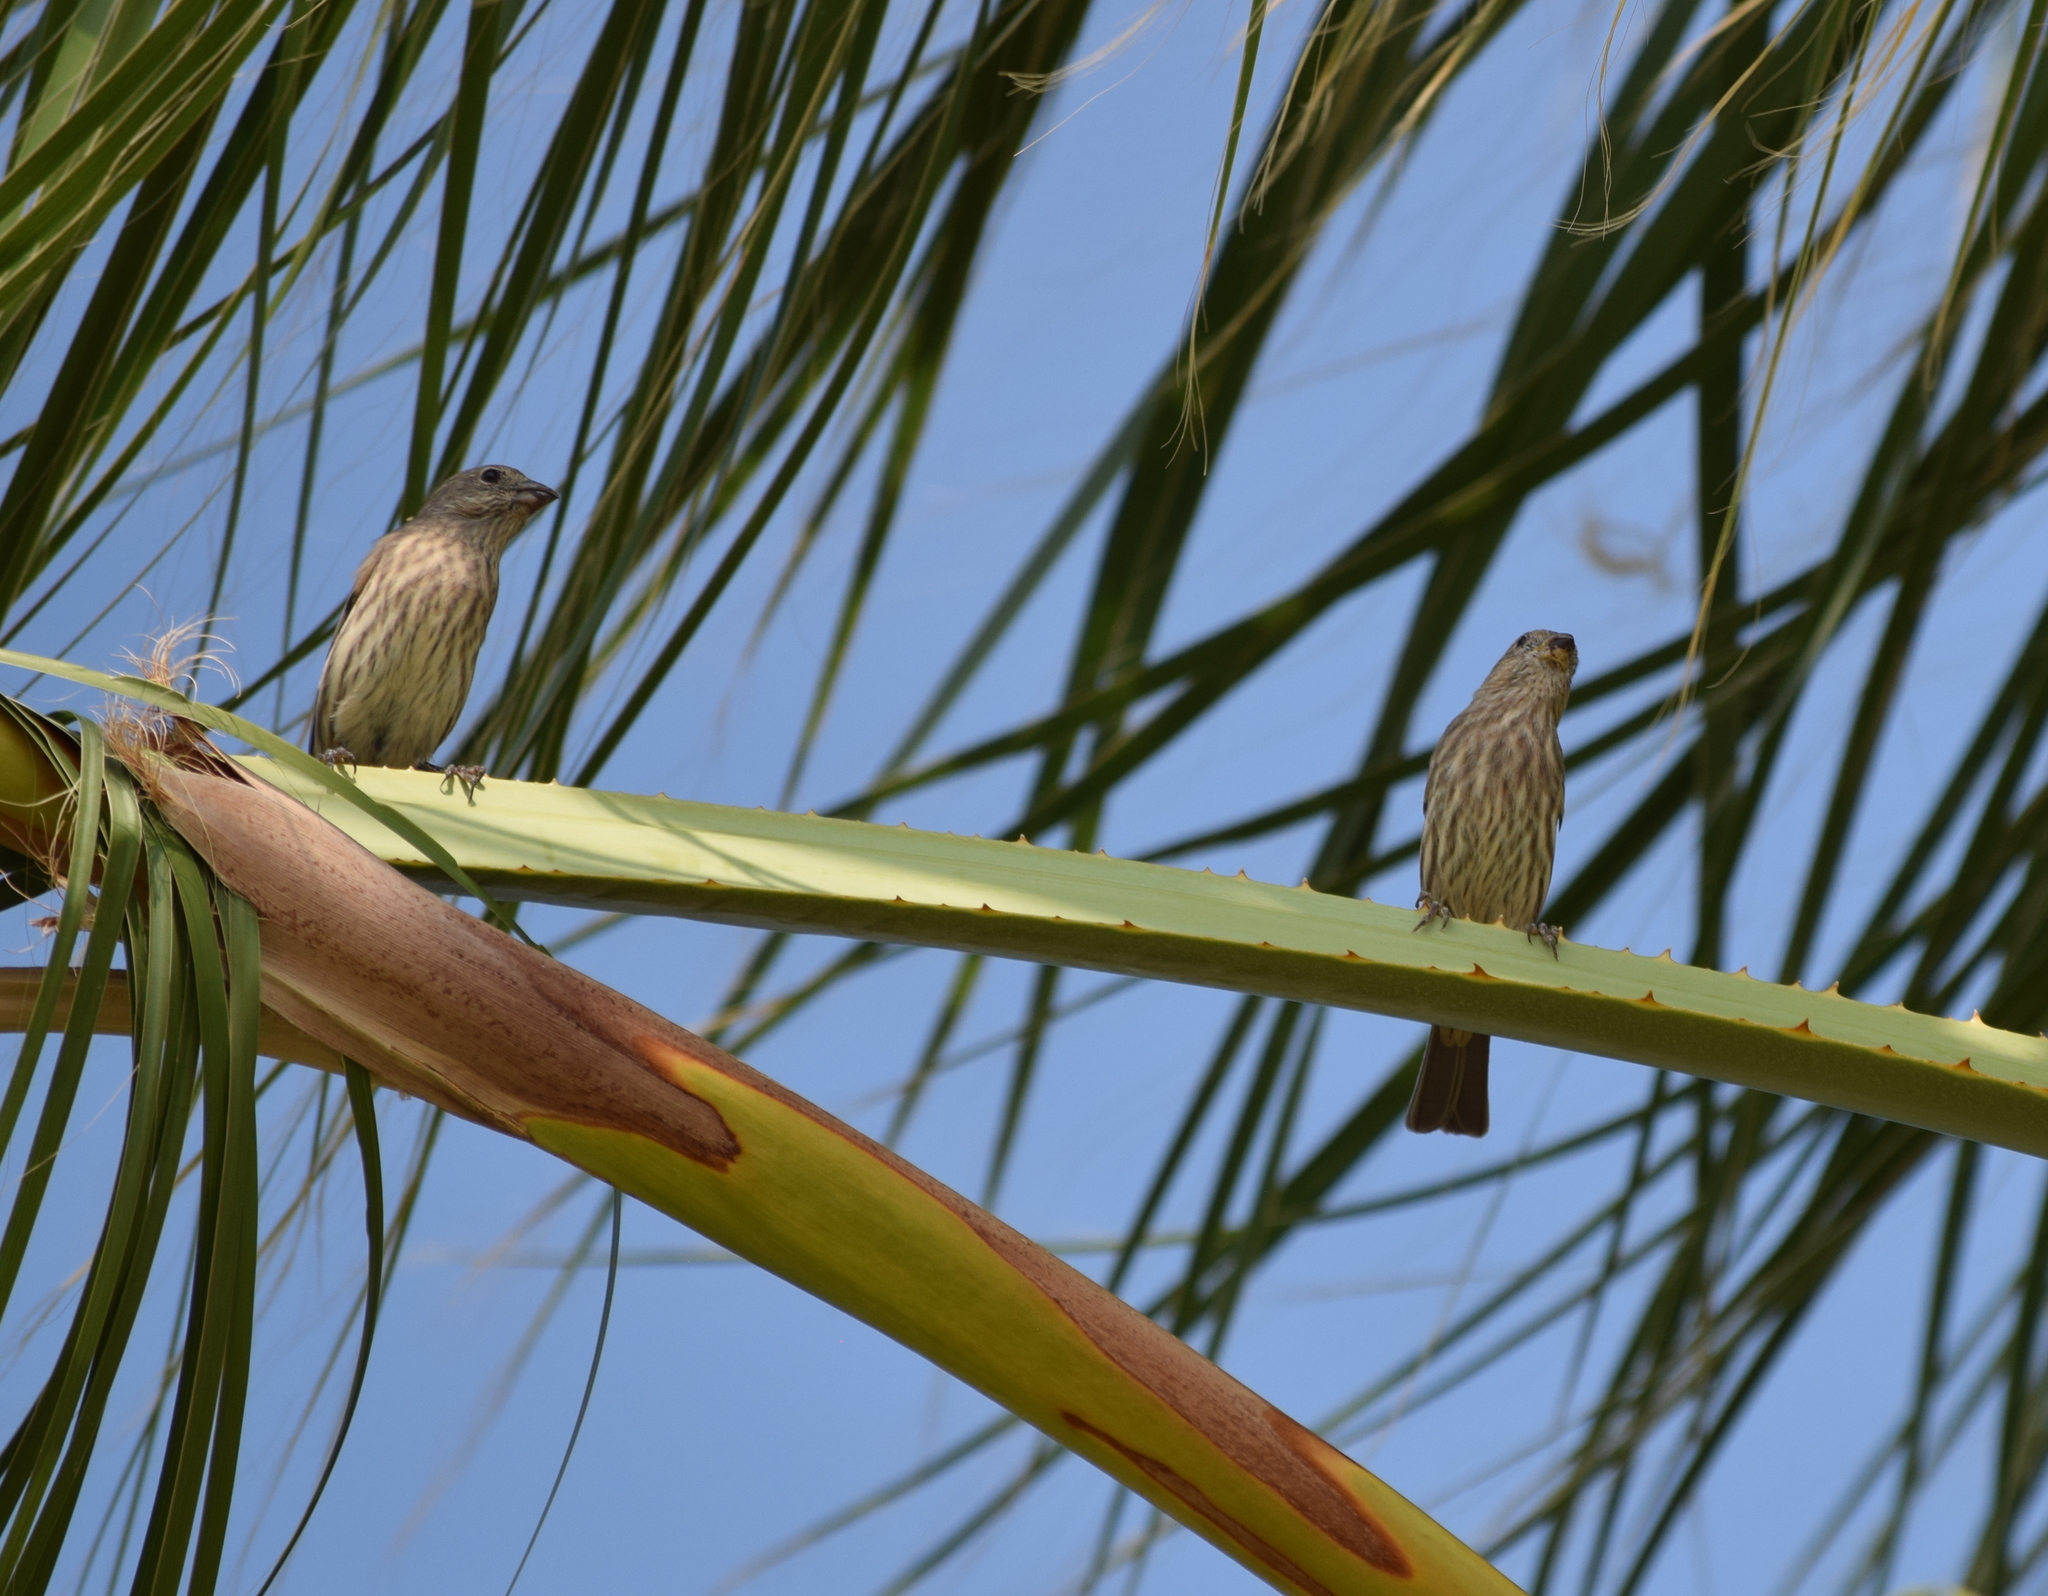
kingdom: Animalia
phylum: Chordata
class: Aves
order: Passeriformes
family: Fringillidae
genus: Haemorhous
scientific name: Haemorhous mexicanus
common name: House finch
